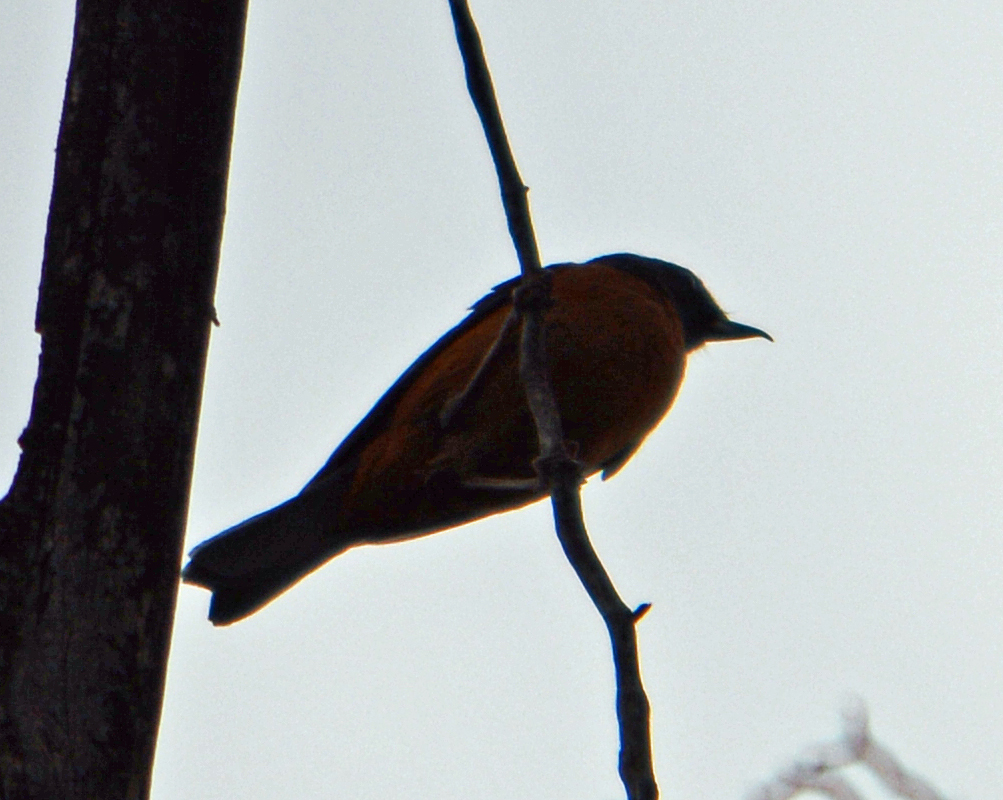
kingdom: Animalia
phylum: Chordata
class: Aves
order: Passeriformes
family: Thraupidae
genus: Diglossa
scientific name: Diglossa baritula
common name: Cinnamon-bellied flowerpiercer
